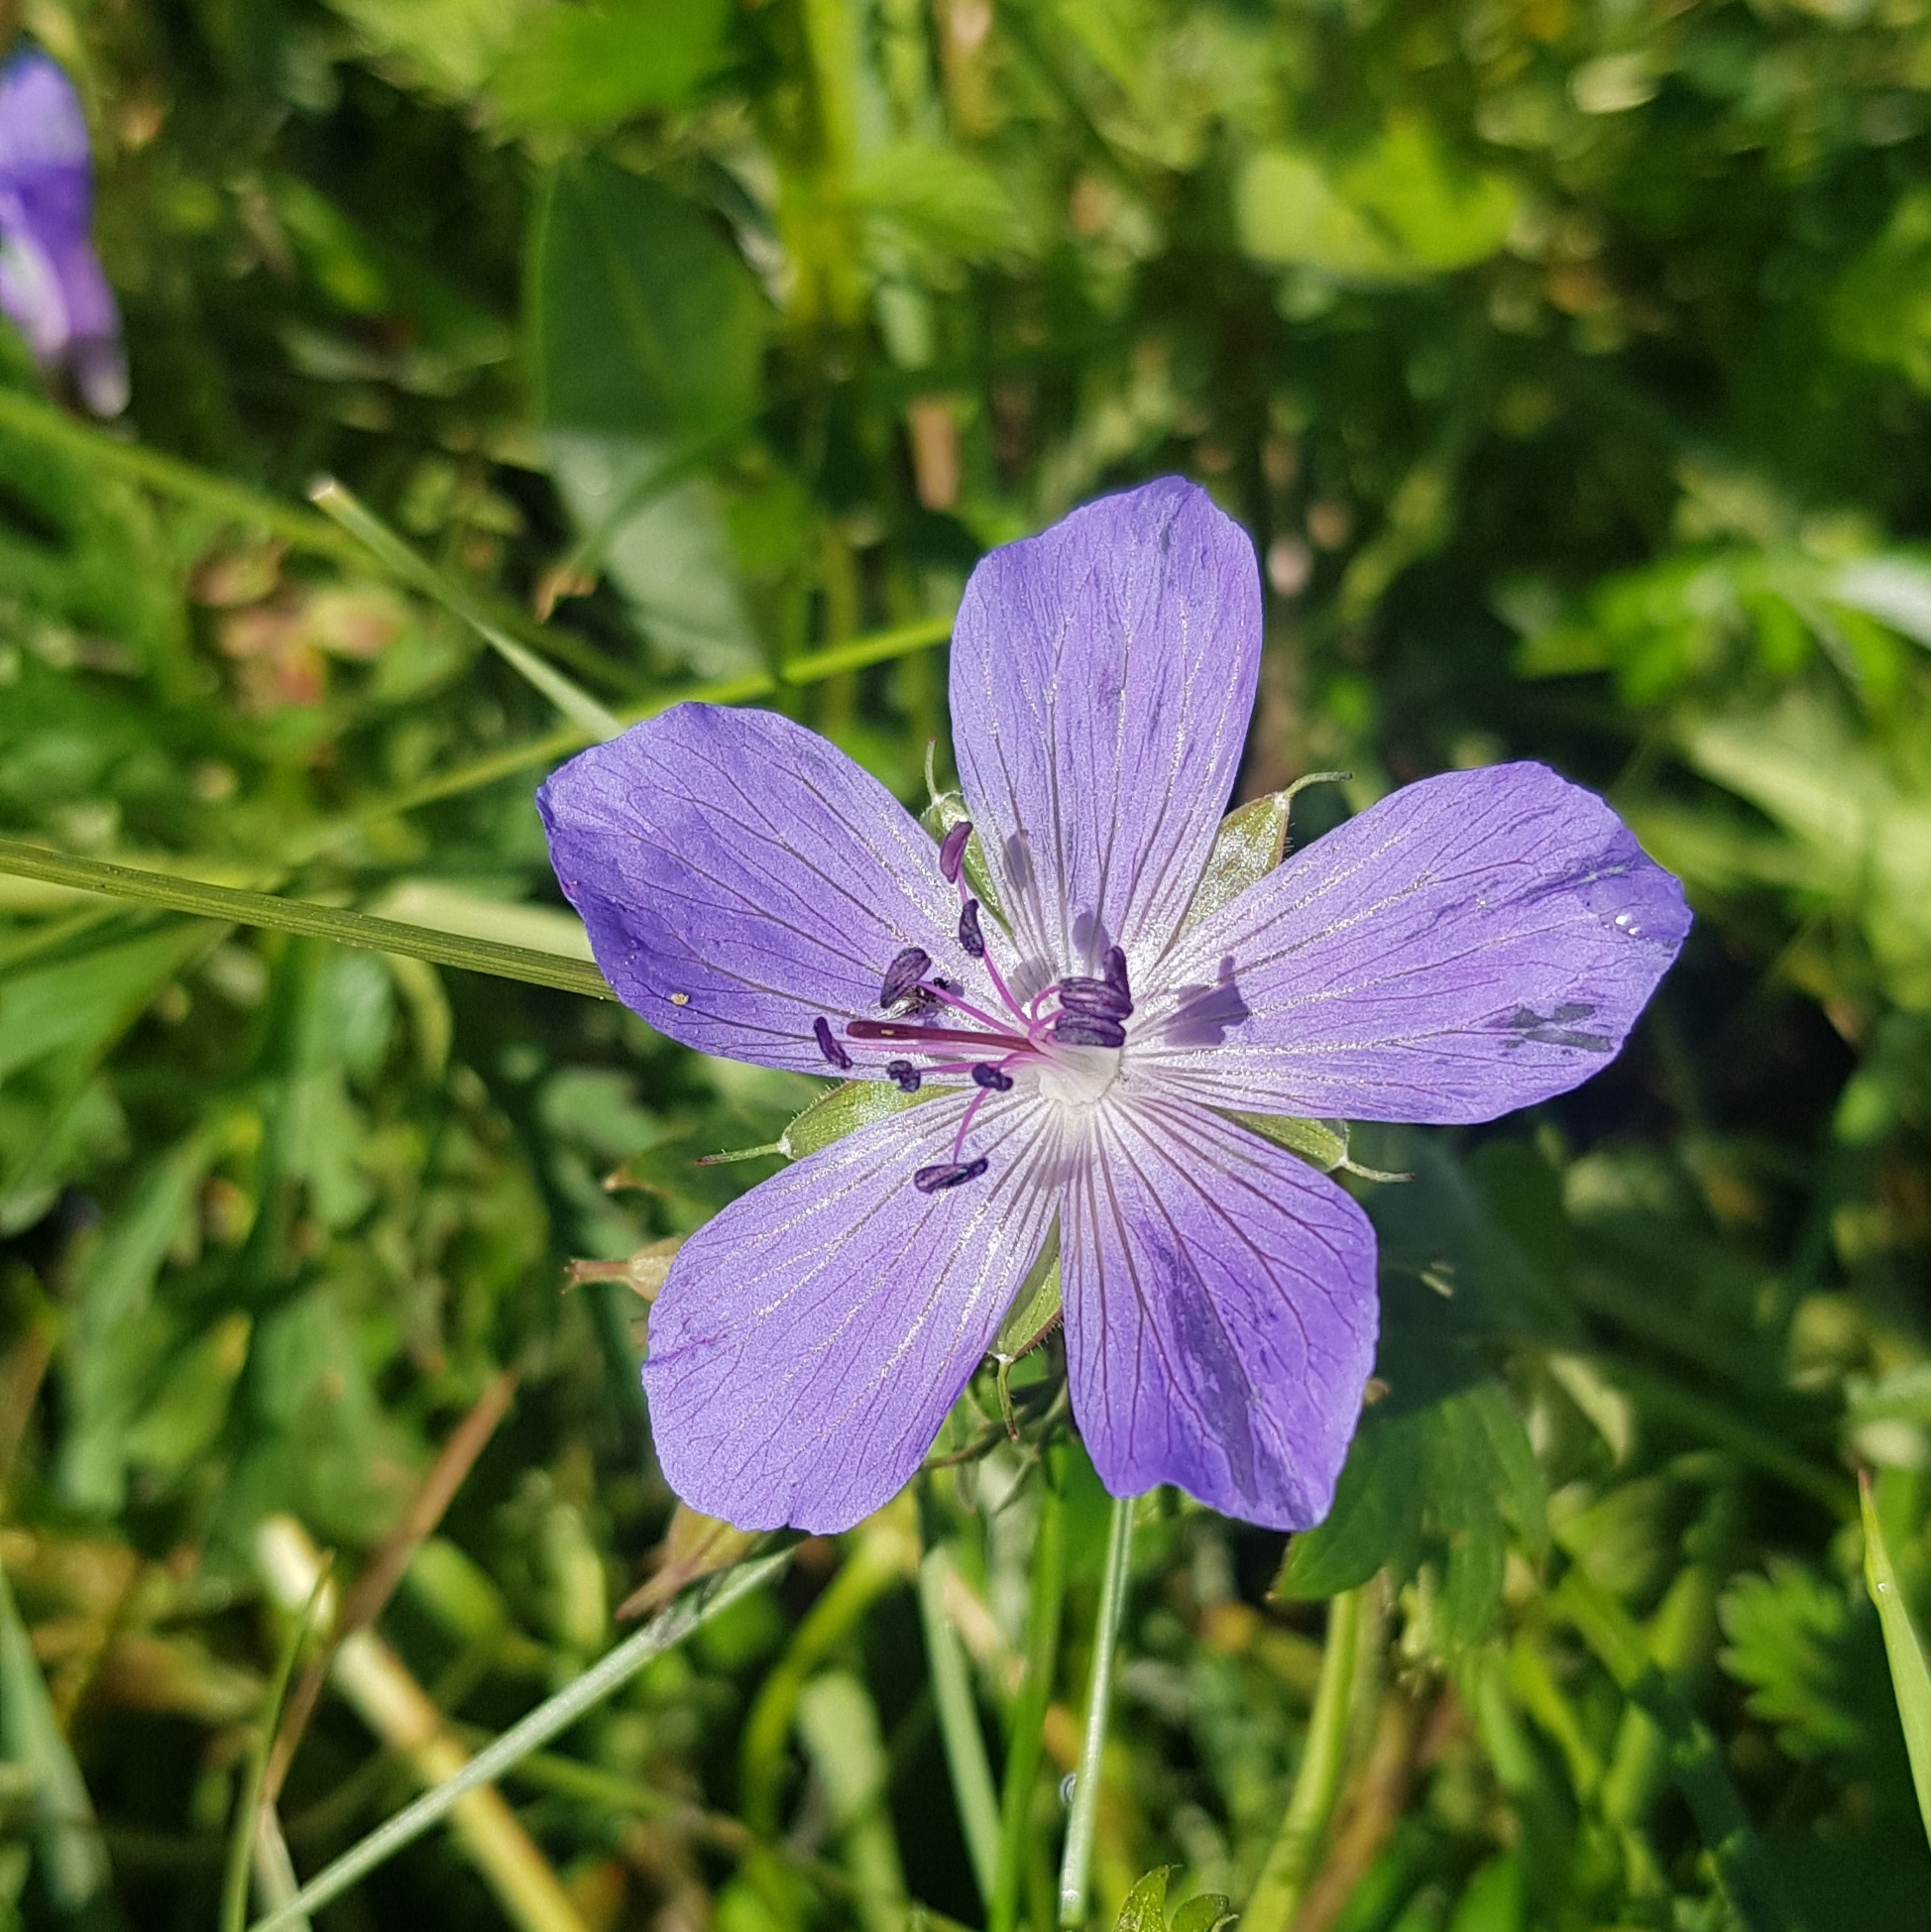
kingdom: Plantae
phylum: Tracheophyta
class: Magnoliopsida
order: Geraniales
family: Geraniaceae
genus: Geranium
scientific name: Geranium pratense
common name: Meadow crane's-bill
